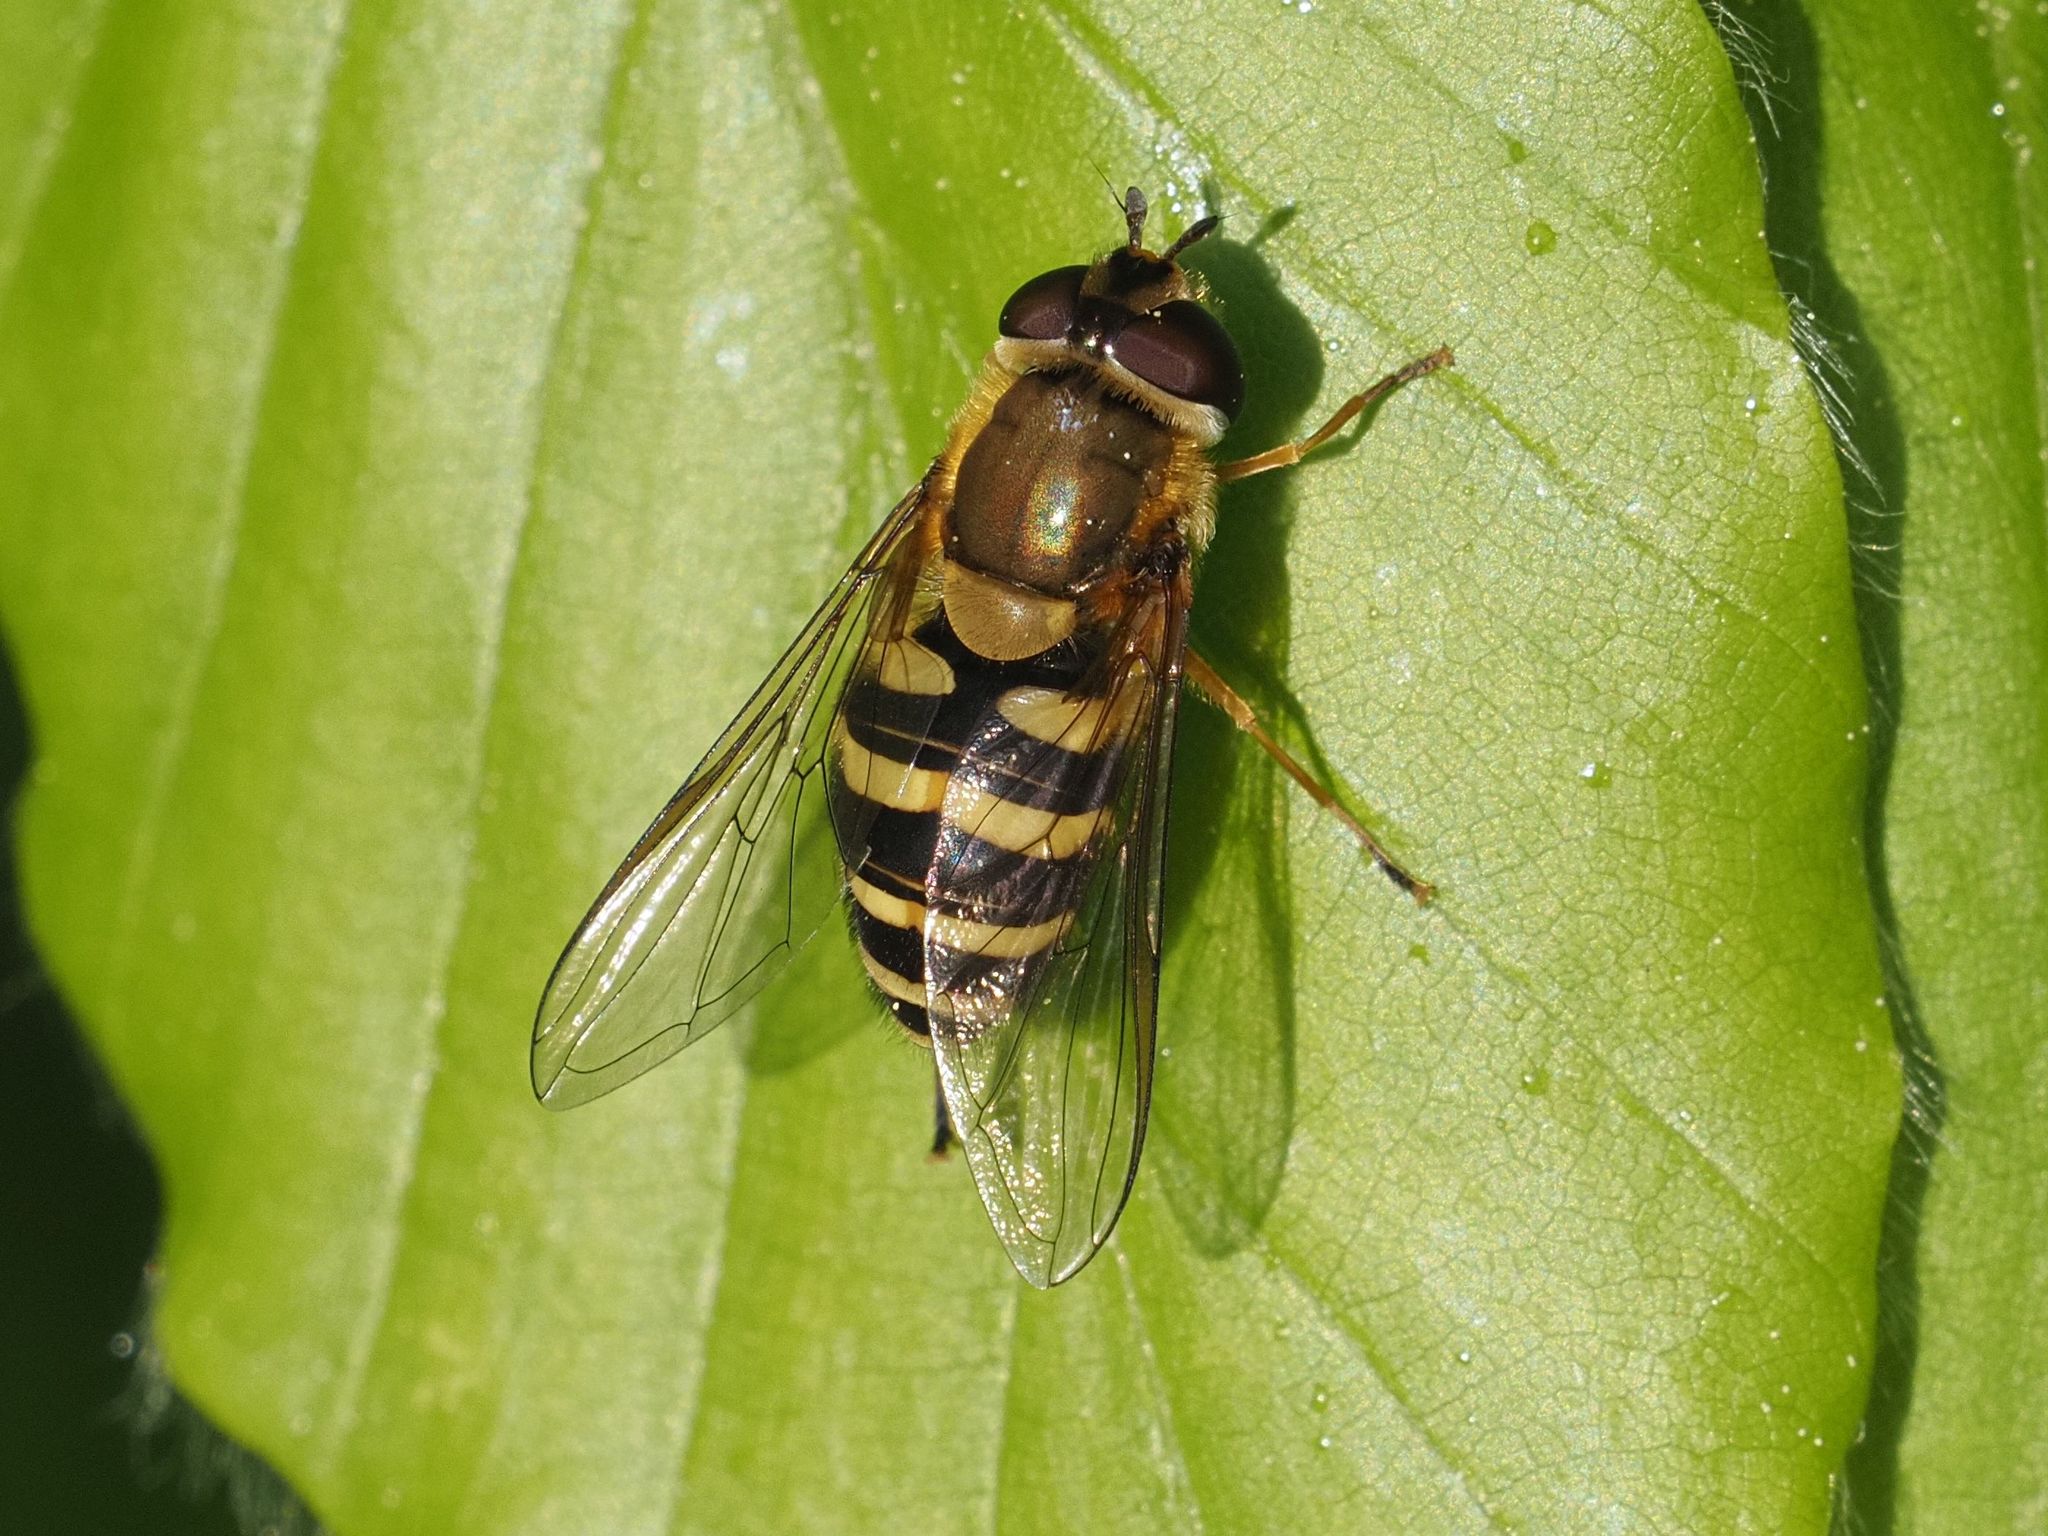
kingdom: Animalia
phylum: Arthropoda
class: Insecta
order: Diptera
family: Syrphidae
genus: Syrphus
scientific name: Syrphus
